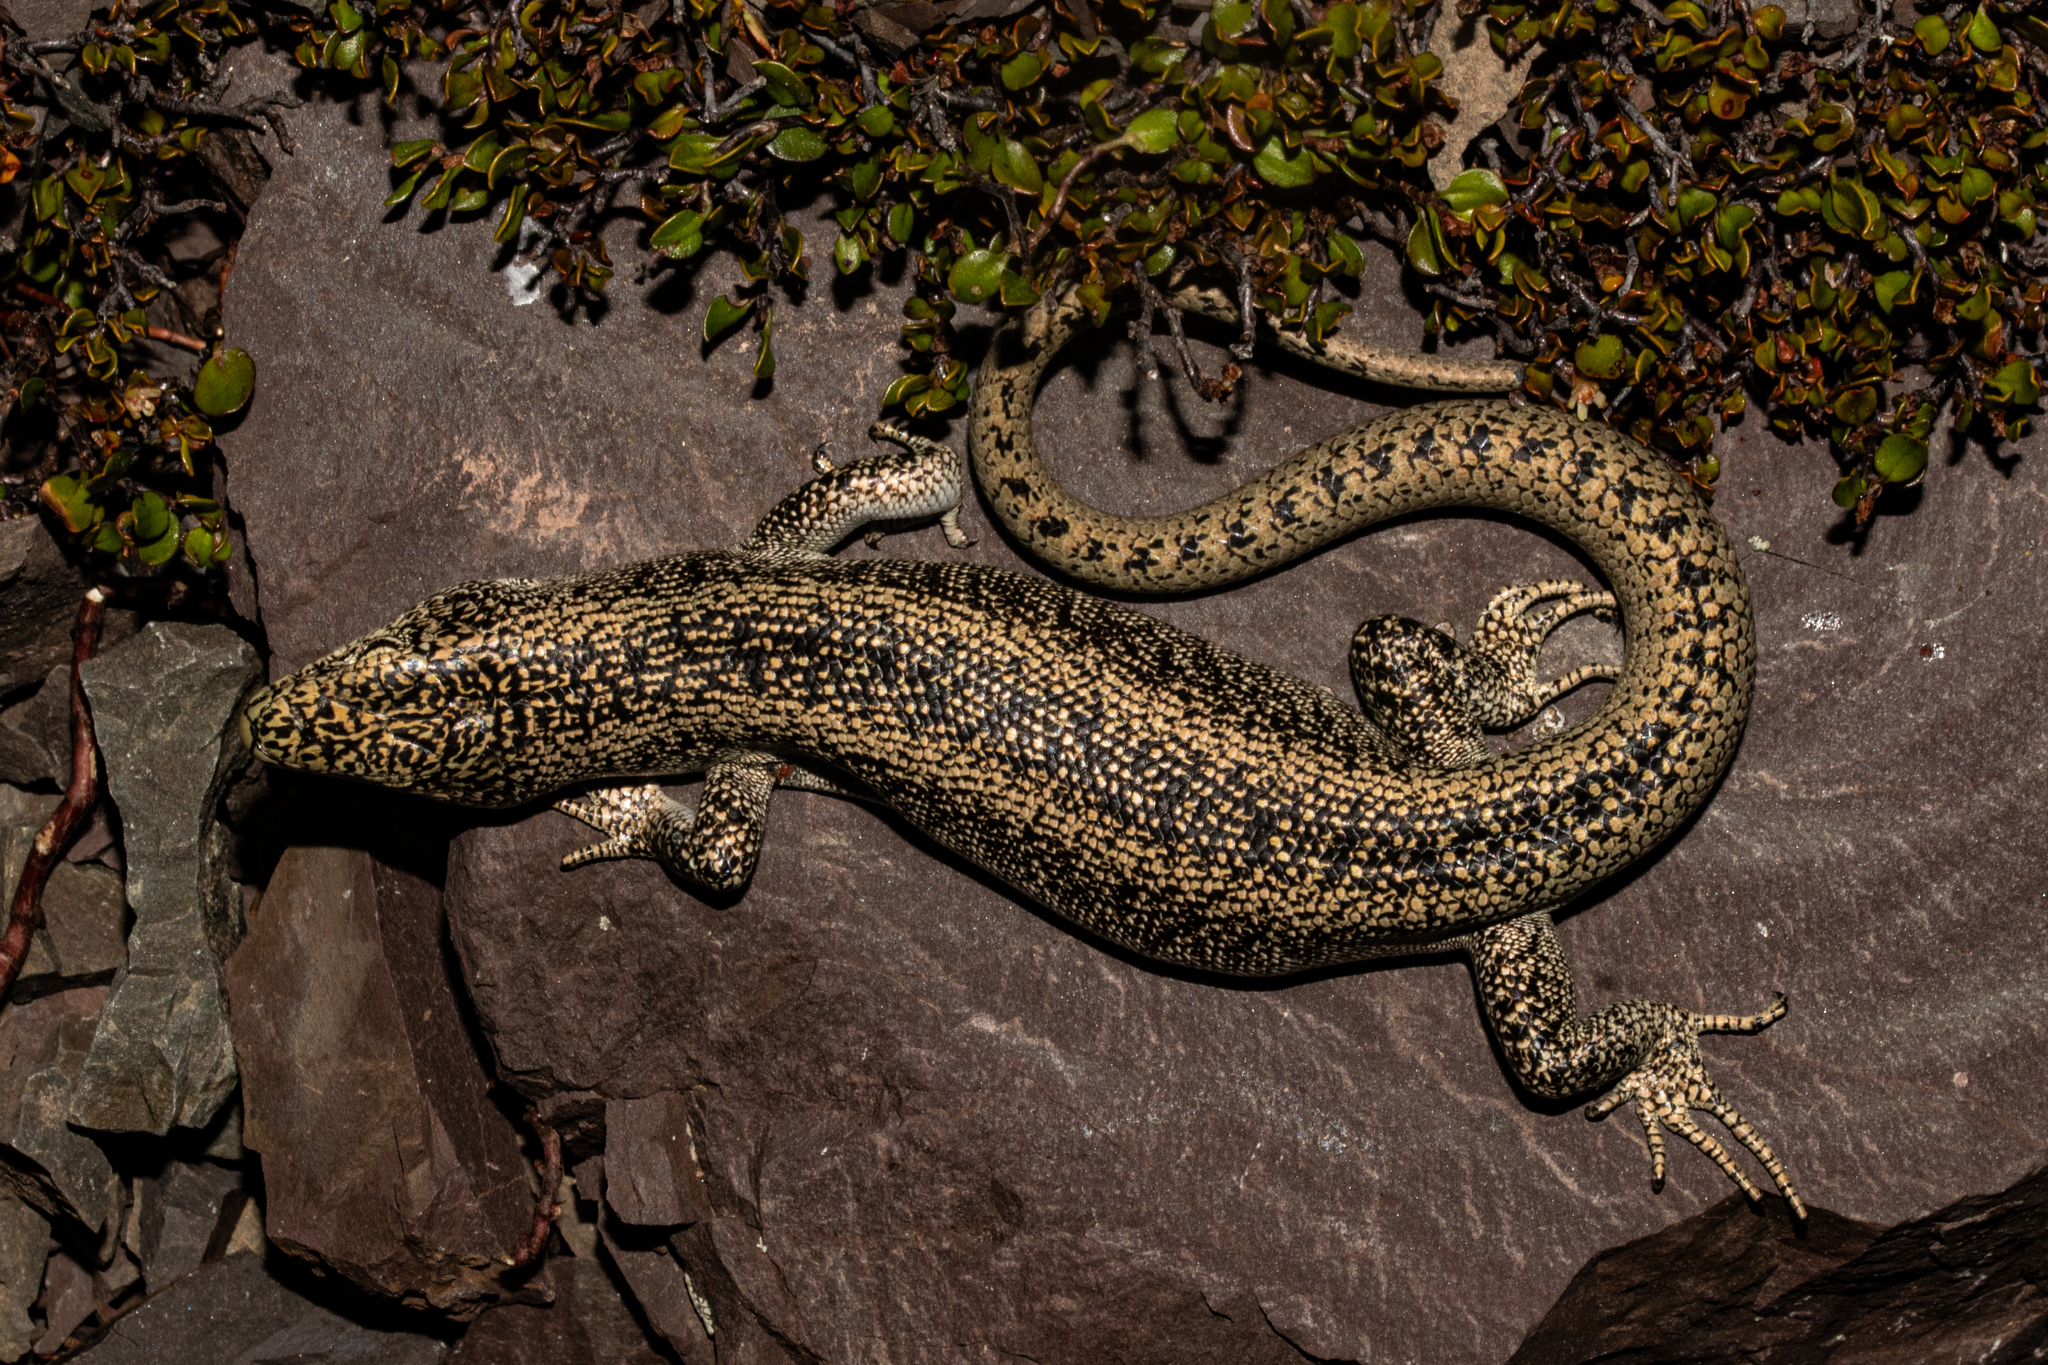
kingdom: Animalia
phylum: Chordata
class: Squamata
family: Scincidae
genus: Oligosoma
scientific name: Oligosoma waimatense
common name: Scree skink
